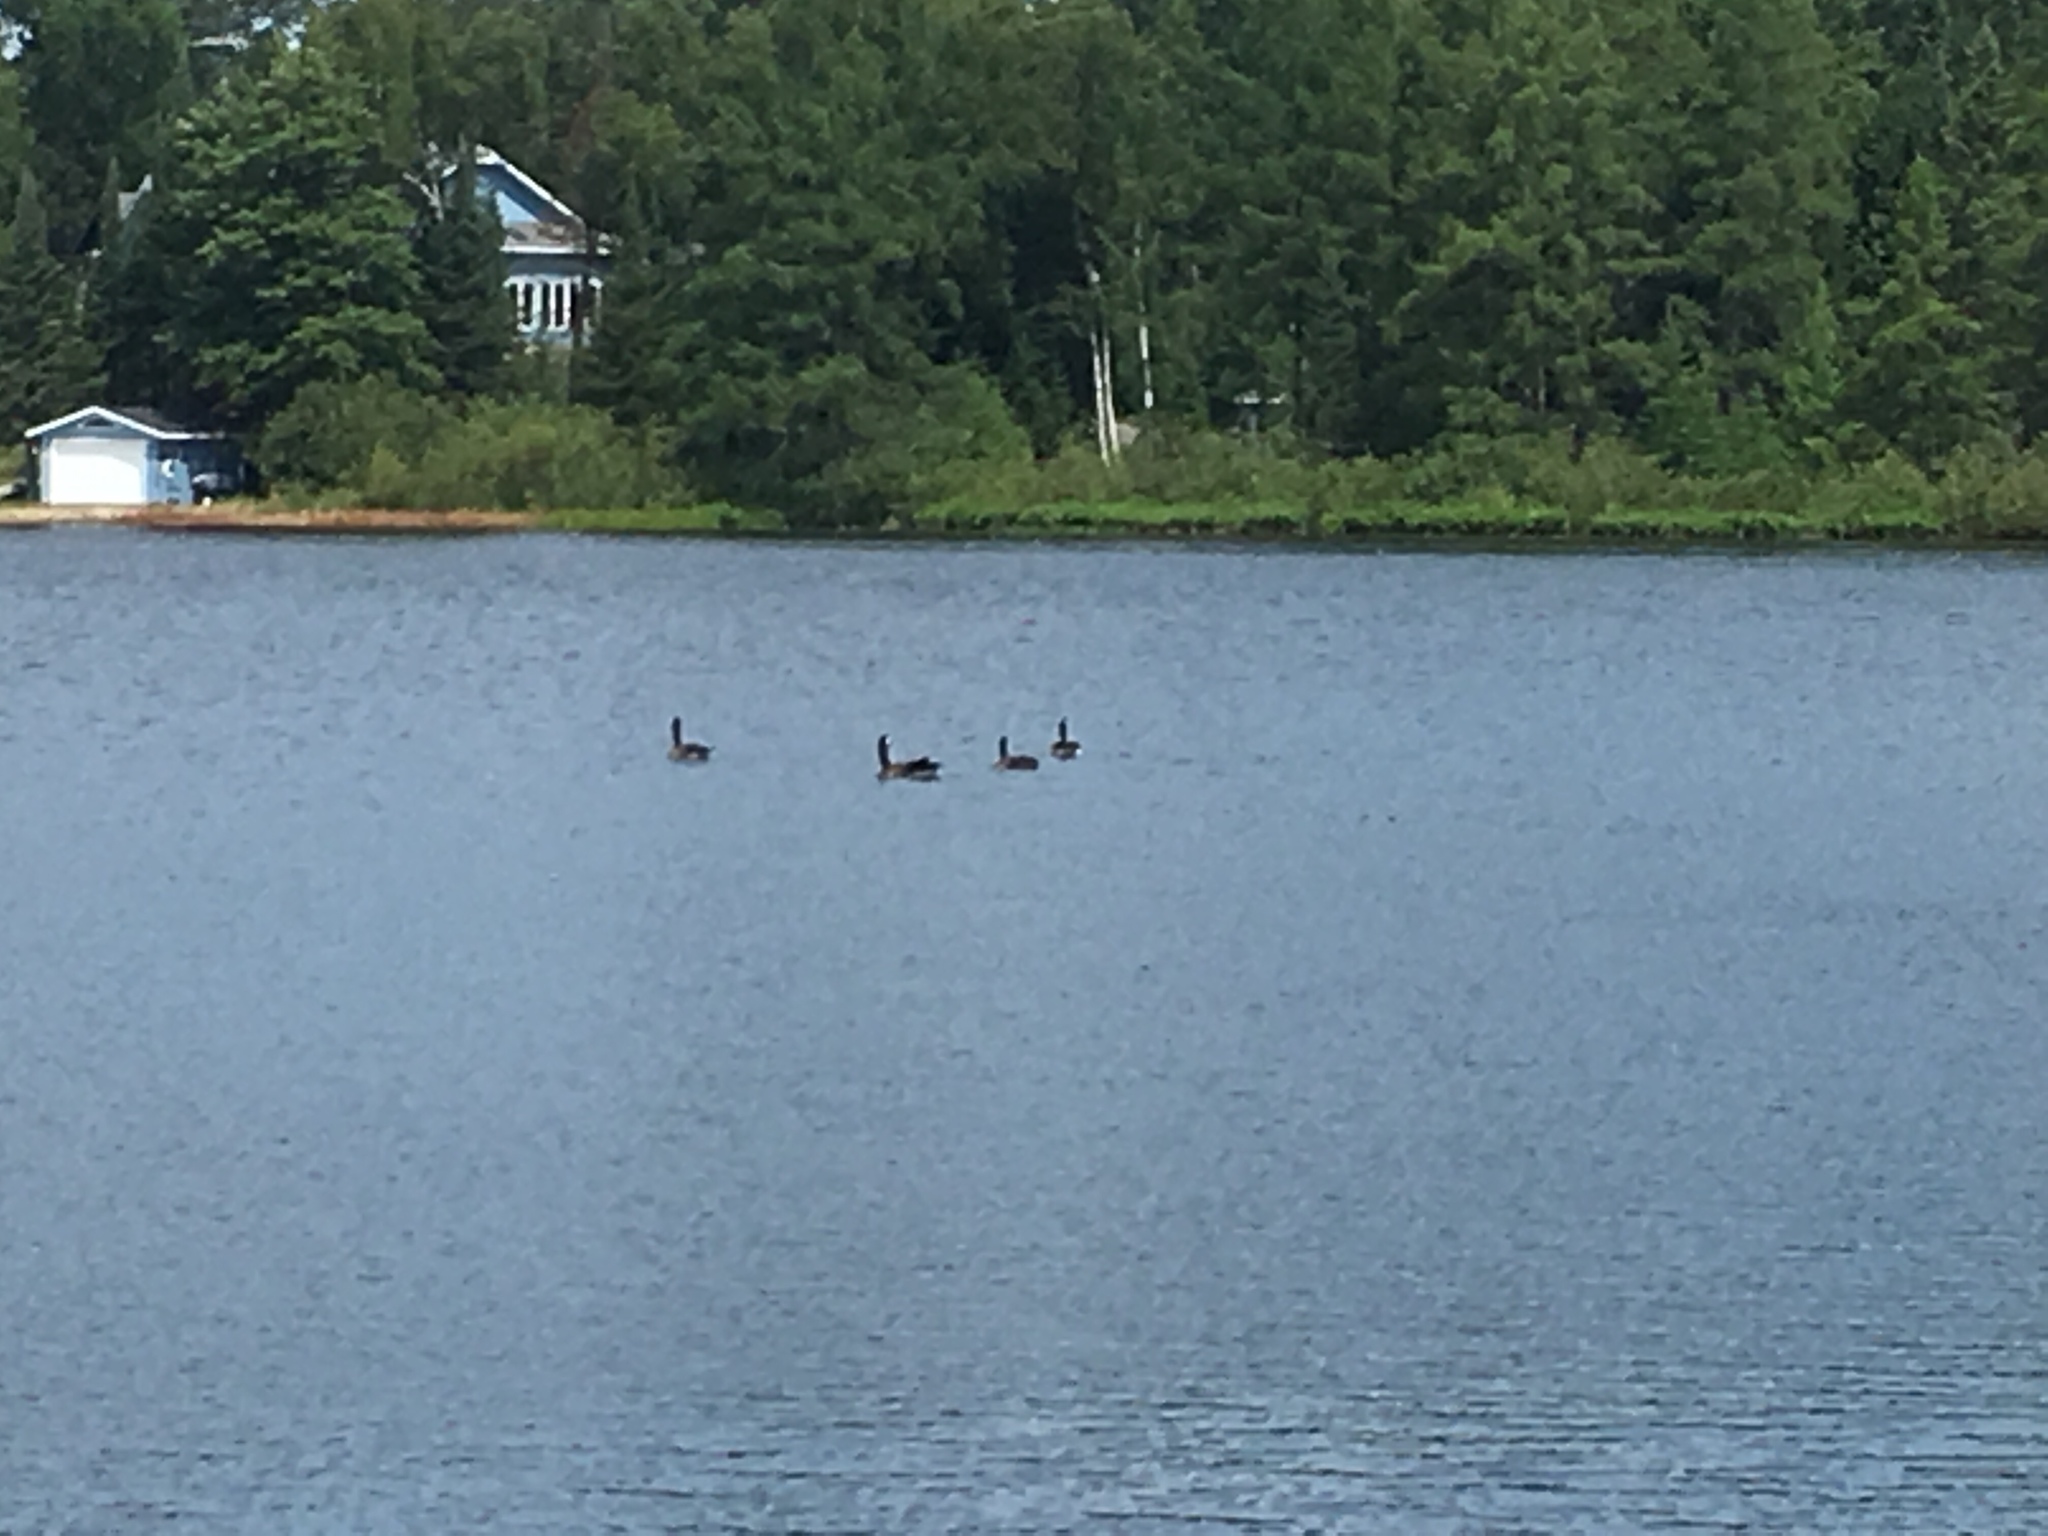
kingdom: Animalia
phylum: Chordata
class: Aves
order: Anseriformes
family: Anatidae
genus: Branta
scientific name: Branta canadensis
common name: Canada goose
